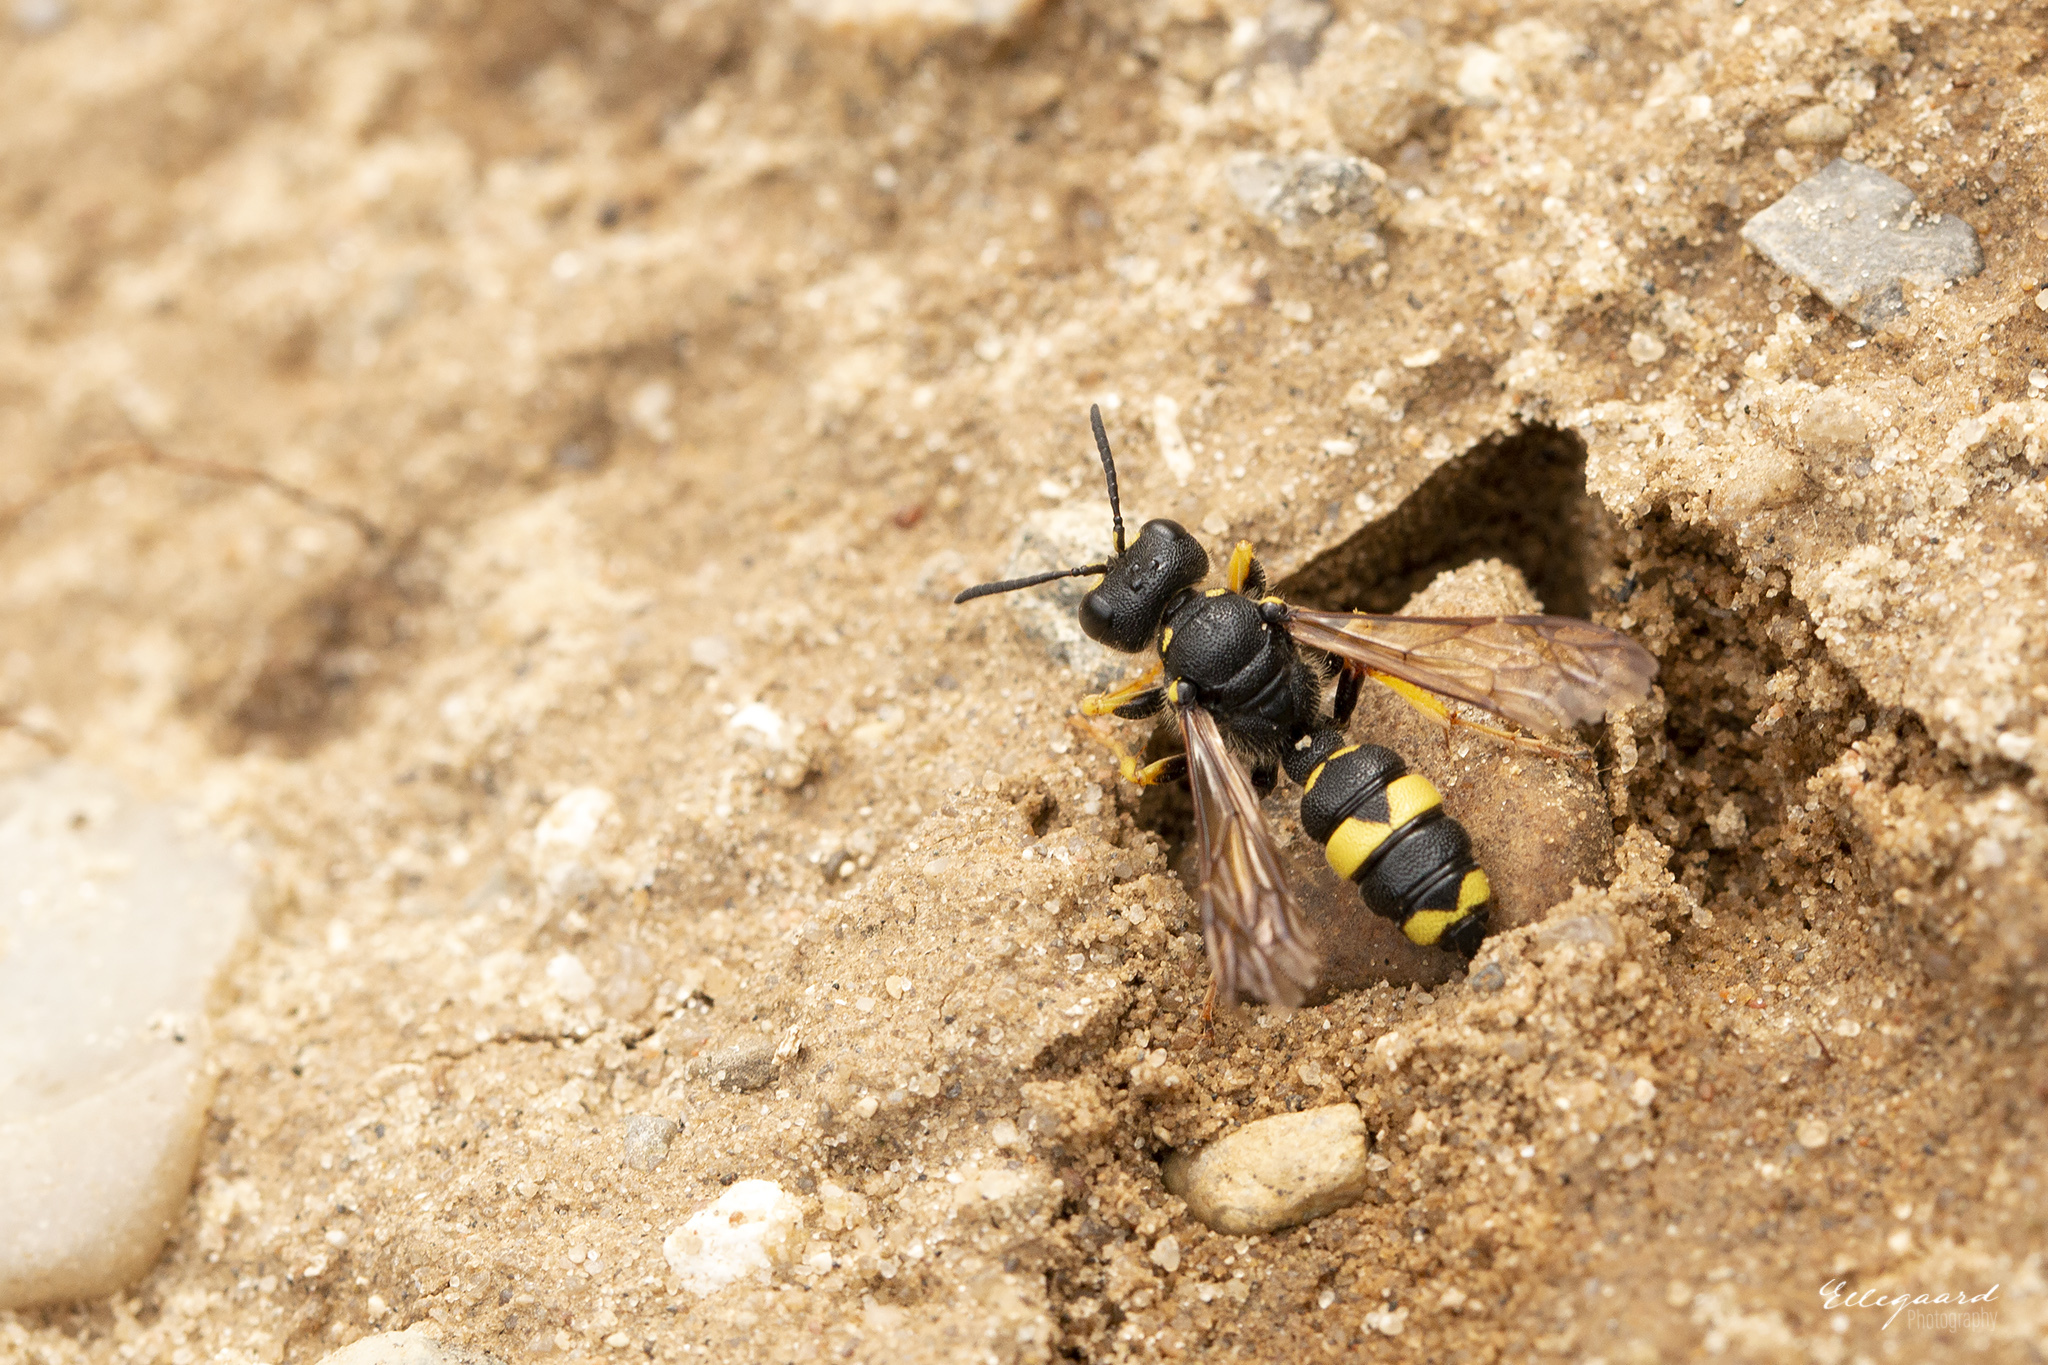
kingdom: Animalia
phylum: Arthropoda
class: Insecta
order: Hymenoptera
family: Crabronidae
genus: Cerceris
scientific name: Cerceris rybyensis
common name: Ornate tailed digger wasp
